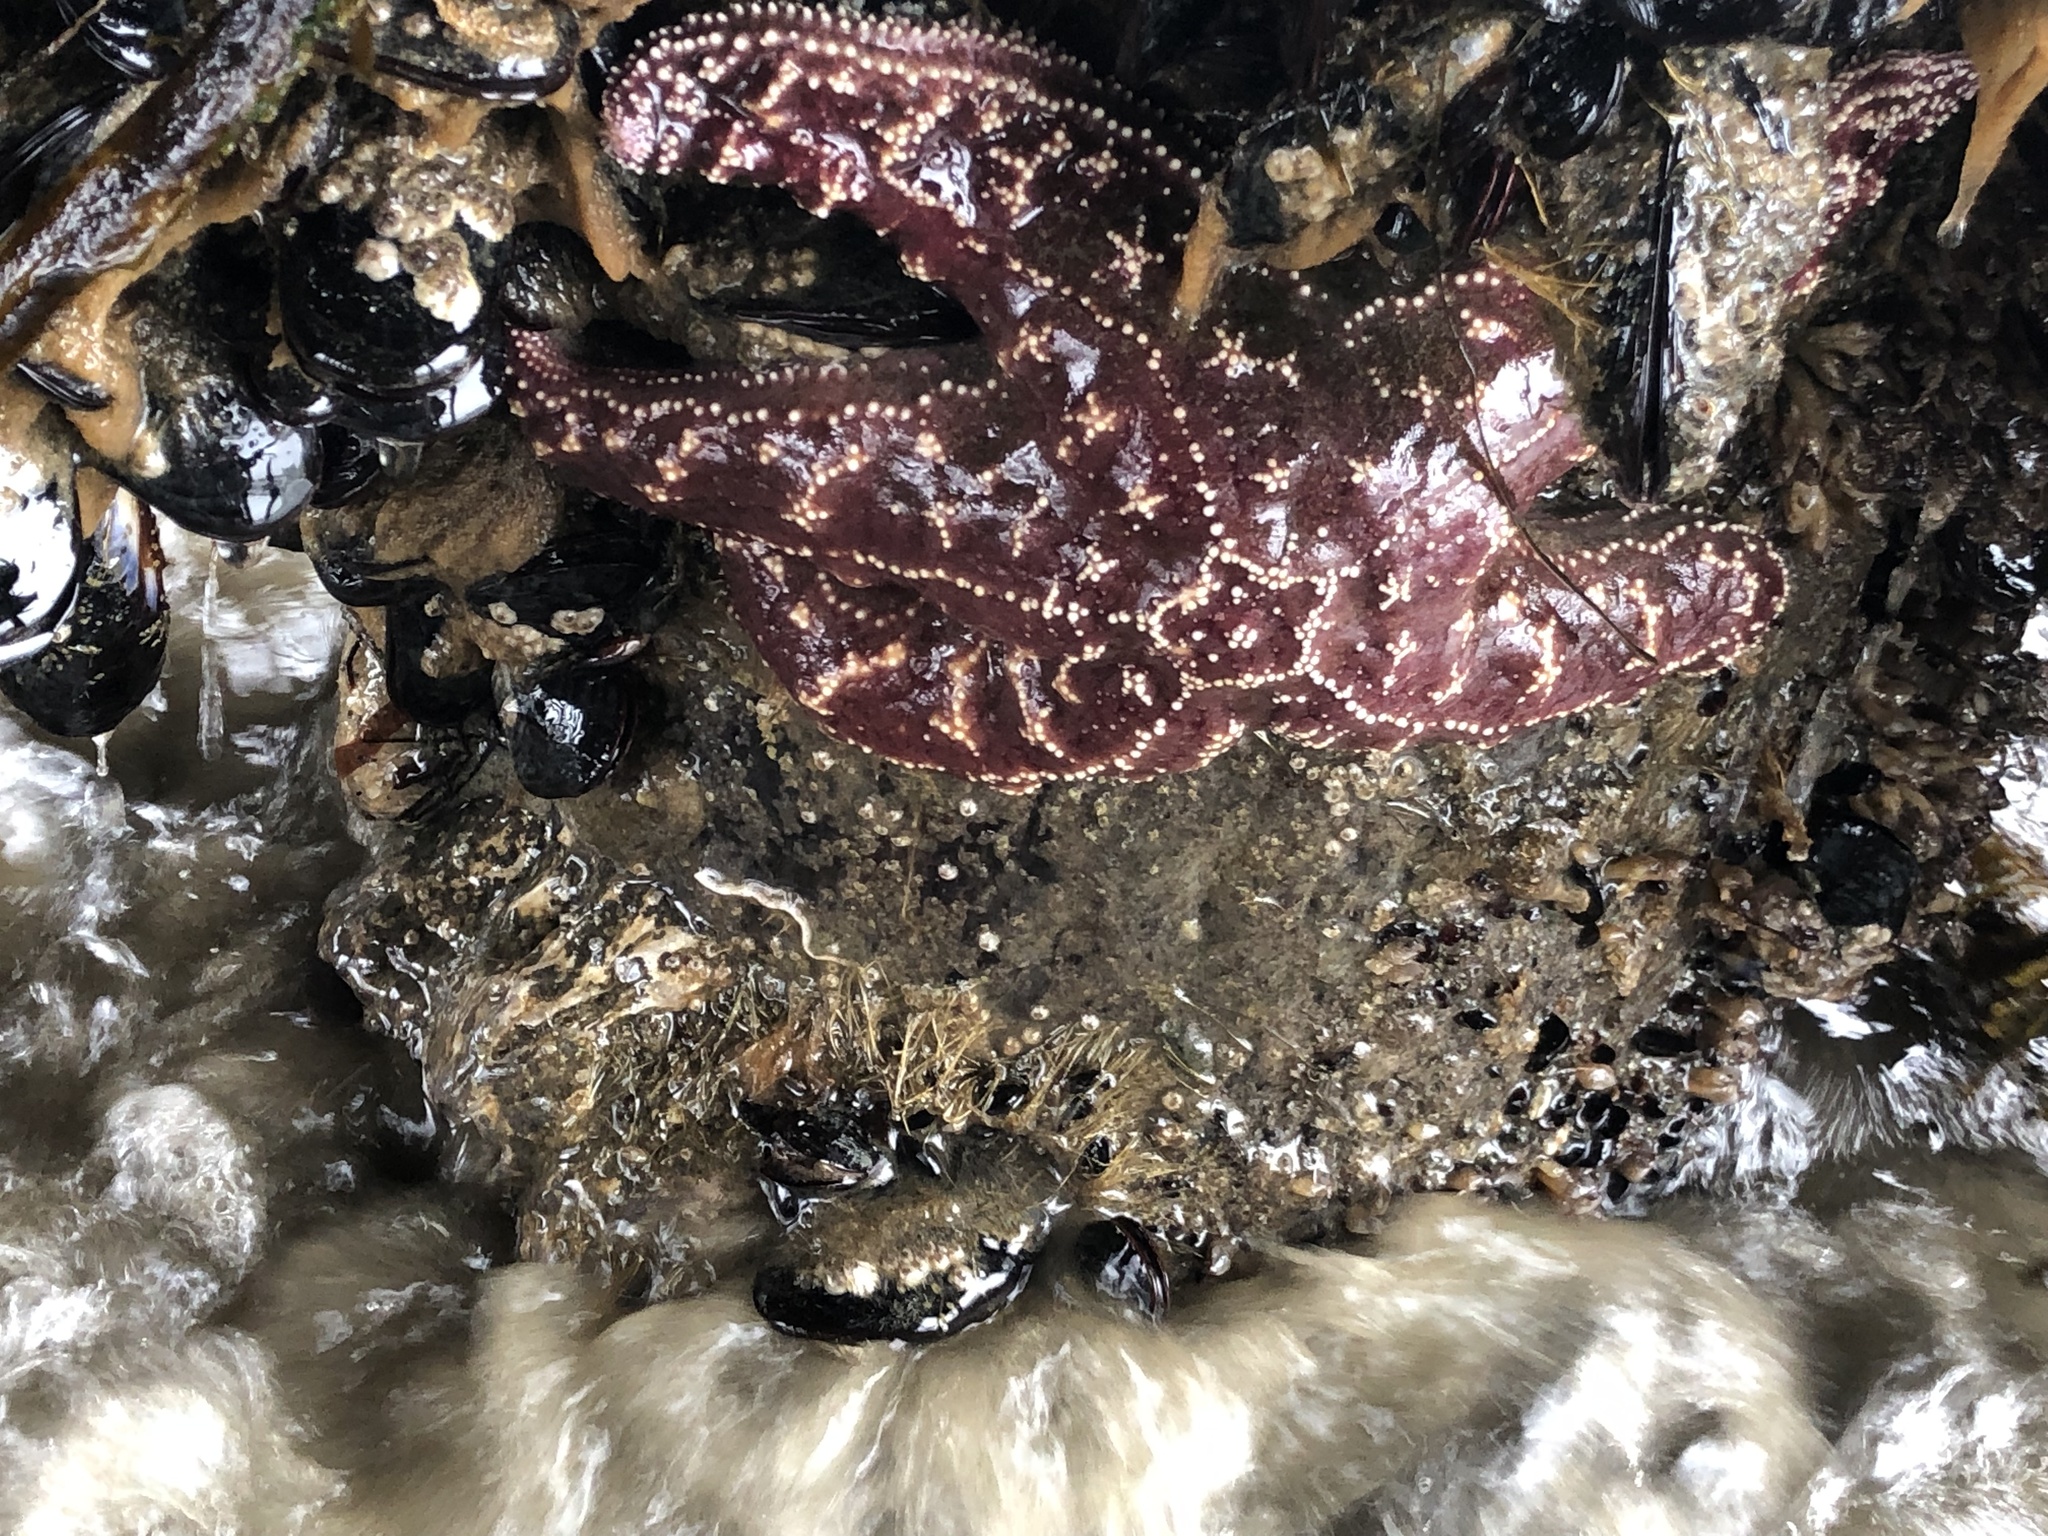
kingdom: Animalia
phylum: Echinodermata
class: Asteroidea
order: Forcipulatida
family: Asteriidae
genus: Pisaster
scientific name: Pisaster ochraceus
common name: Ochre stars
